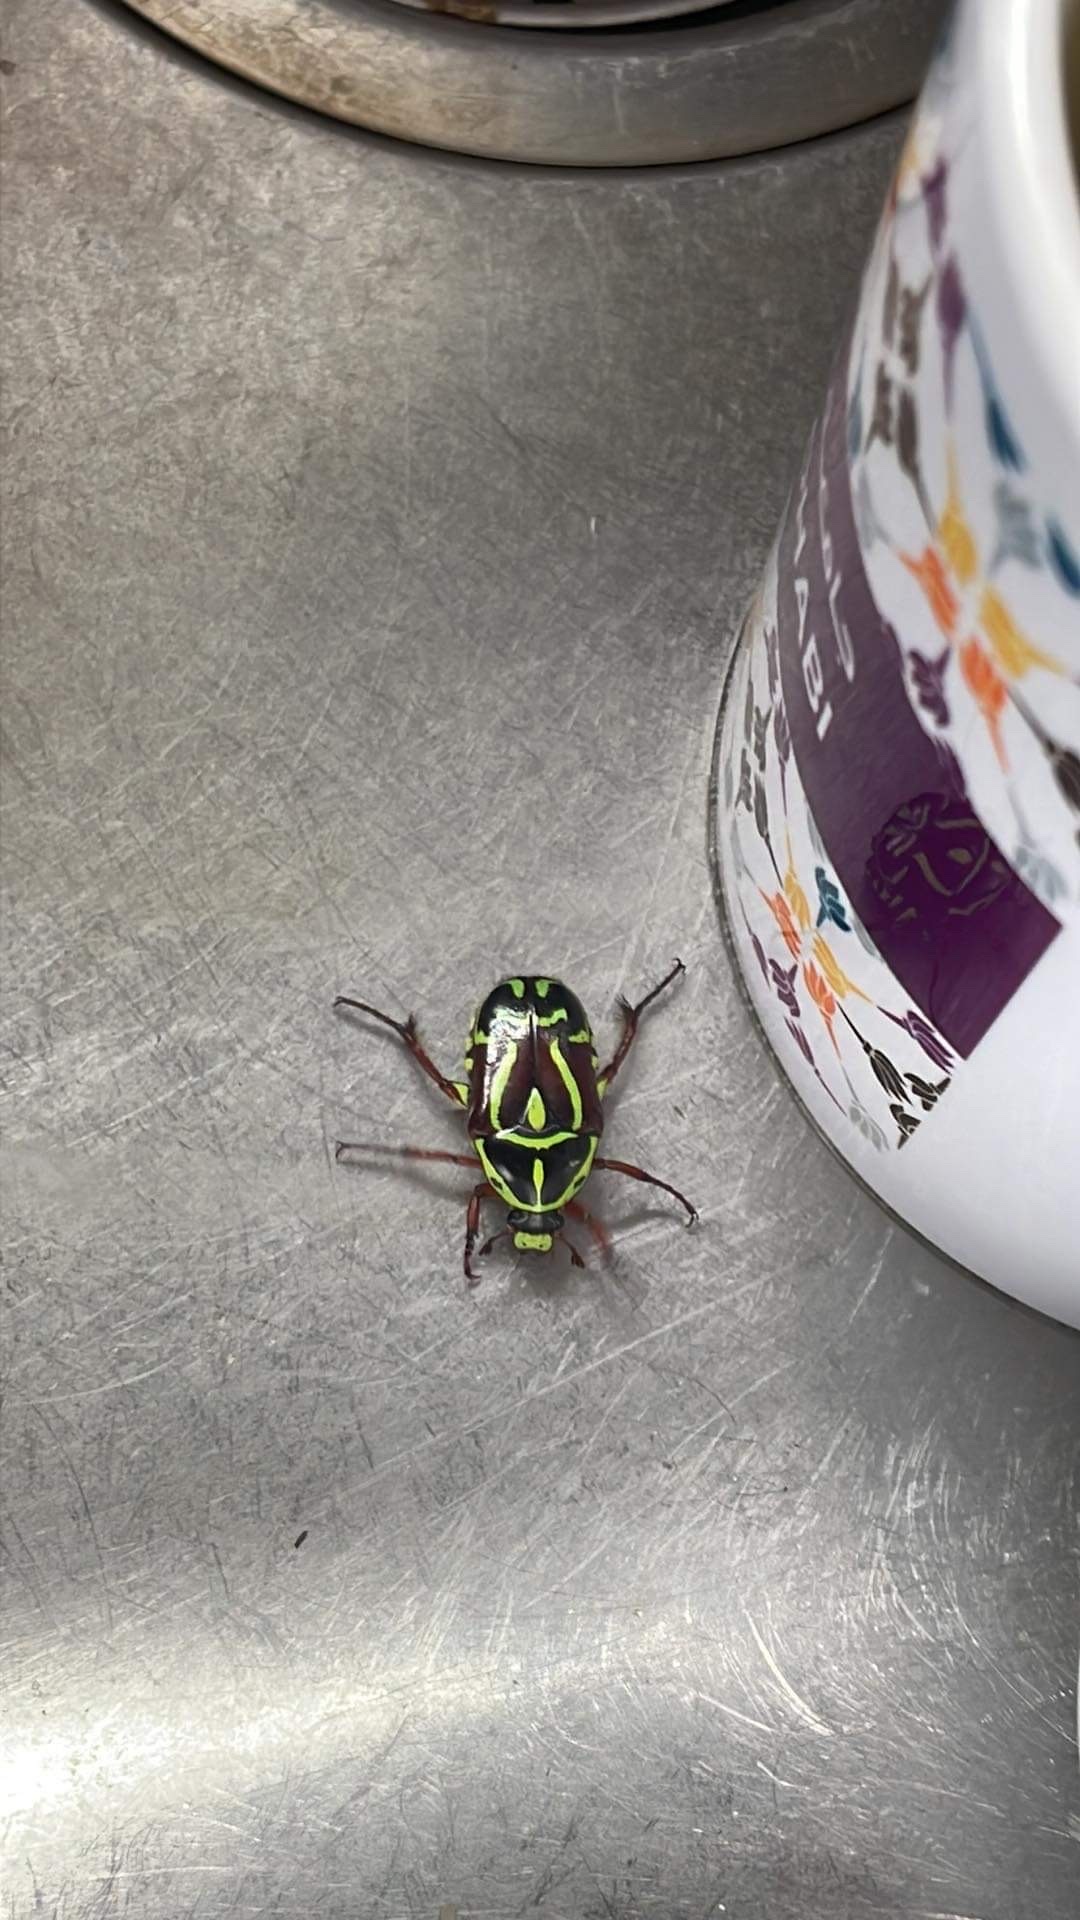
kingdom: Animalia
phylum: Arthropoda
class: Insecta
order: Coleoptera
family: Scarabaeidae
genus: Eupoecila
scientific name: Eupoecila australasiae
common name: Fiddler beetle
